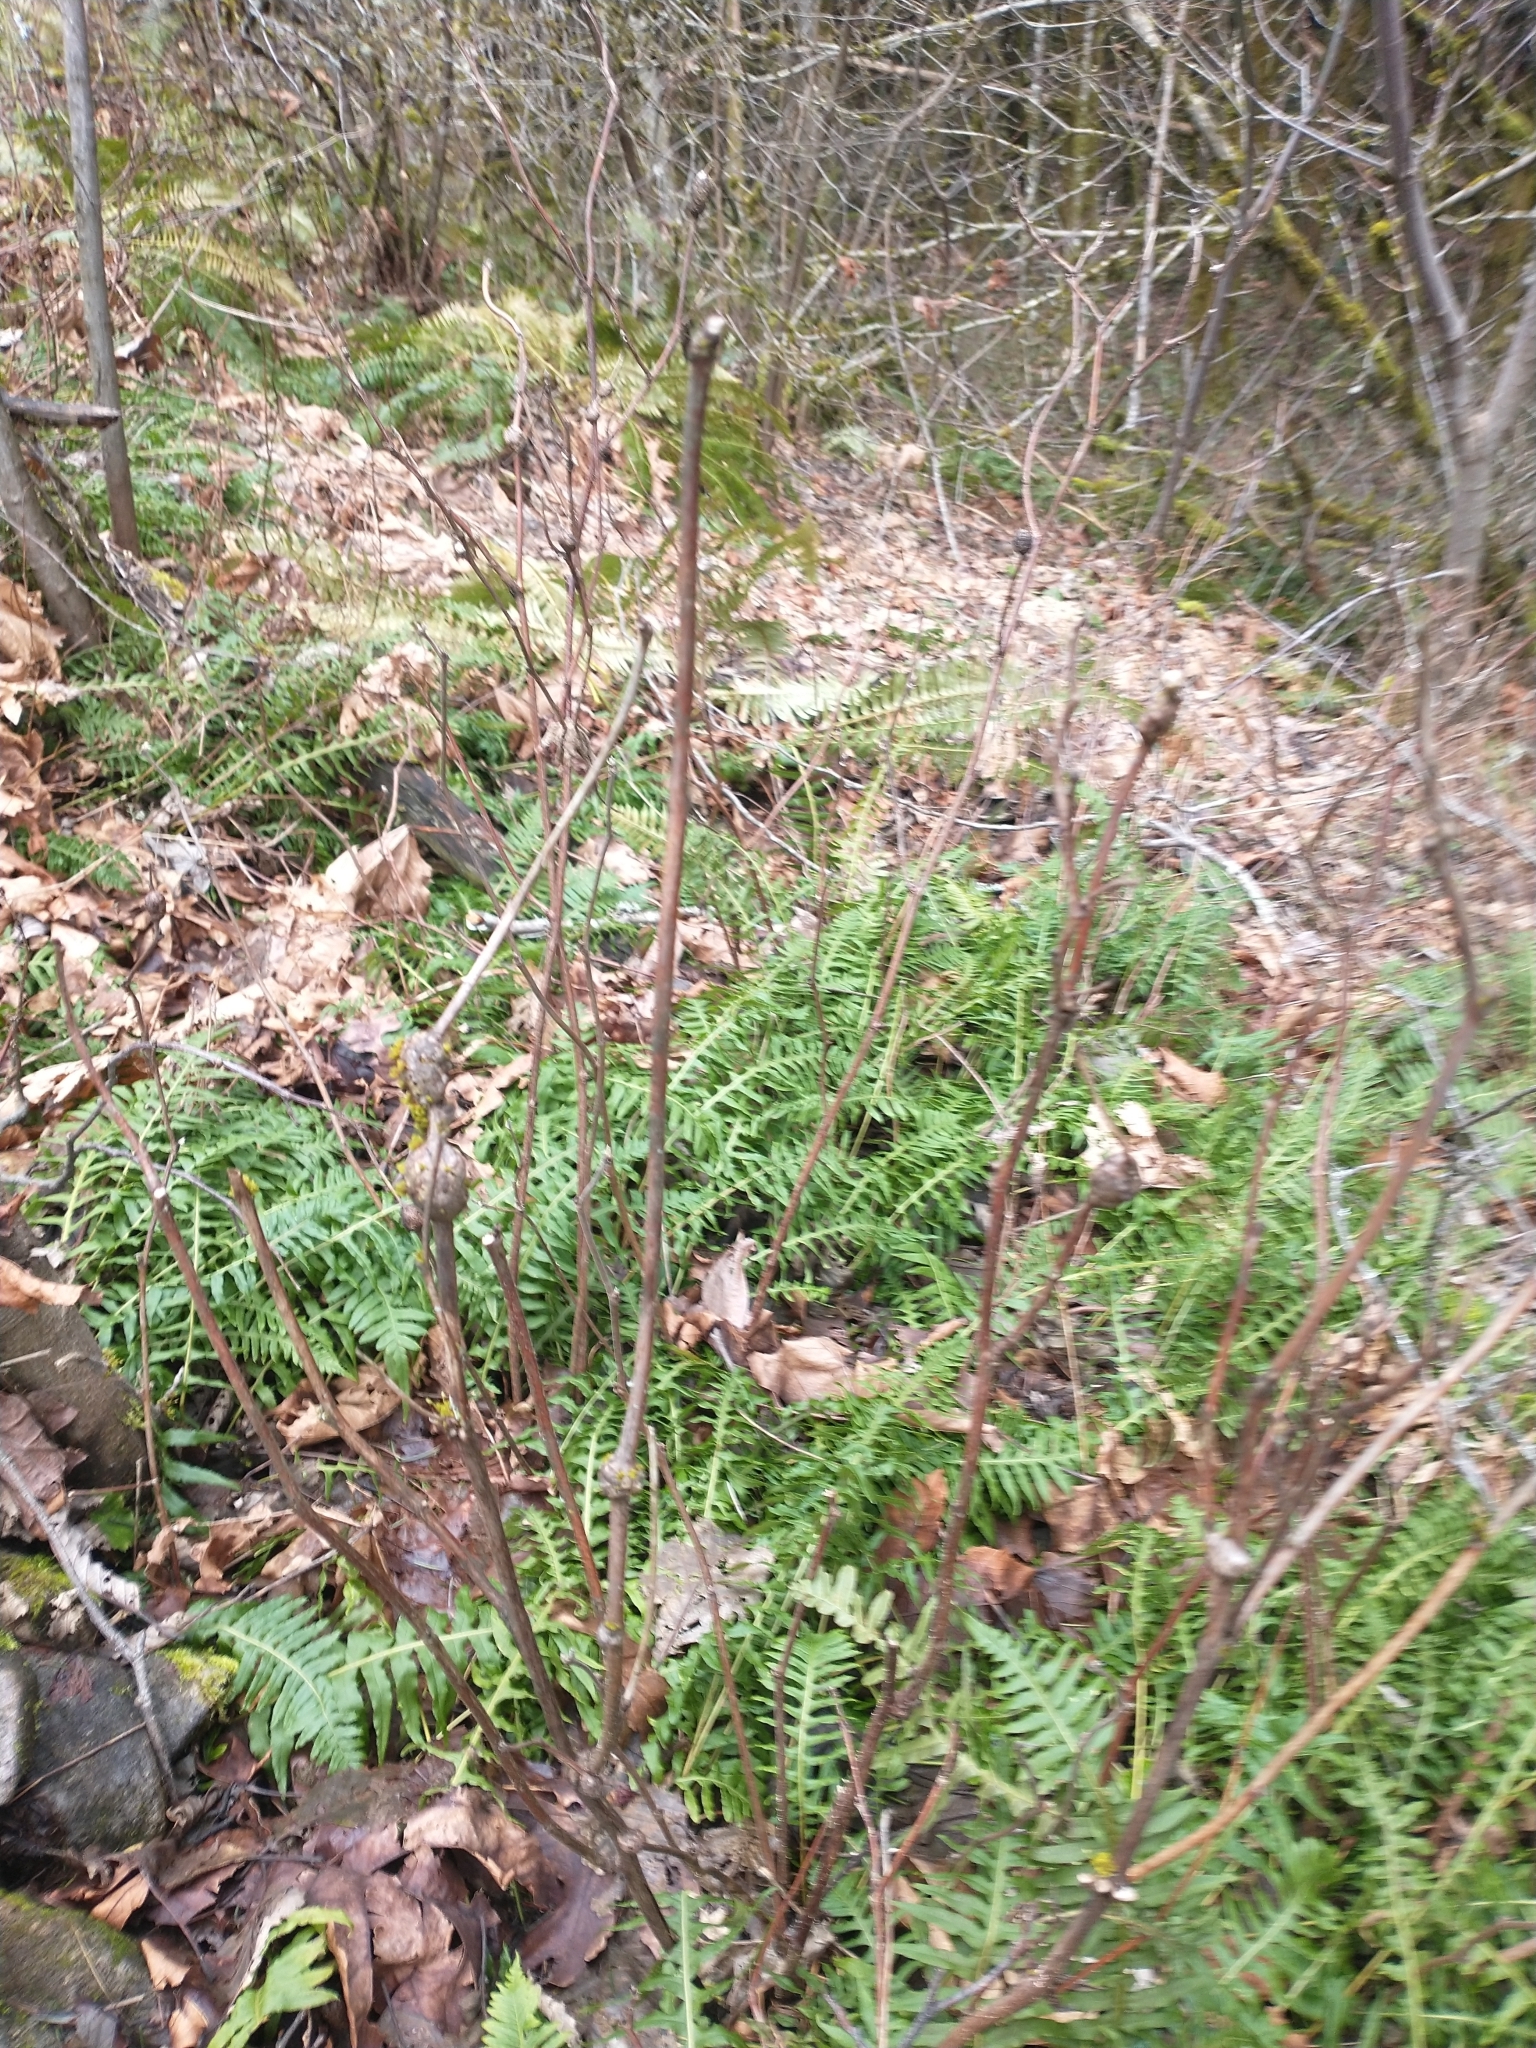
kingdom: Plantae
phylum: Tracheophyta
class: Magnoliopsida
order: Rosales
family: Rosaceae
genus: Rubus
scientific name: Rubus parviflorus
